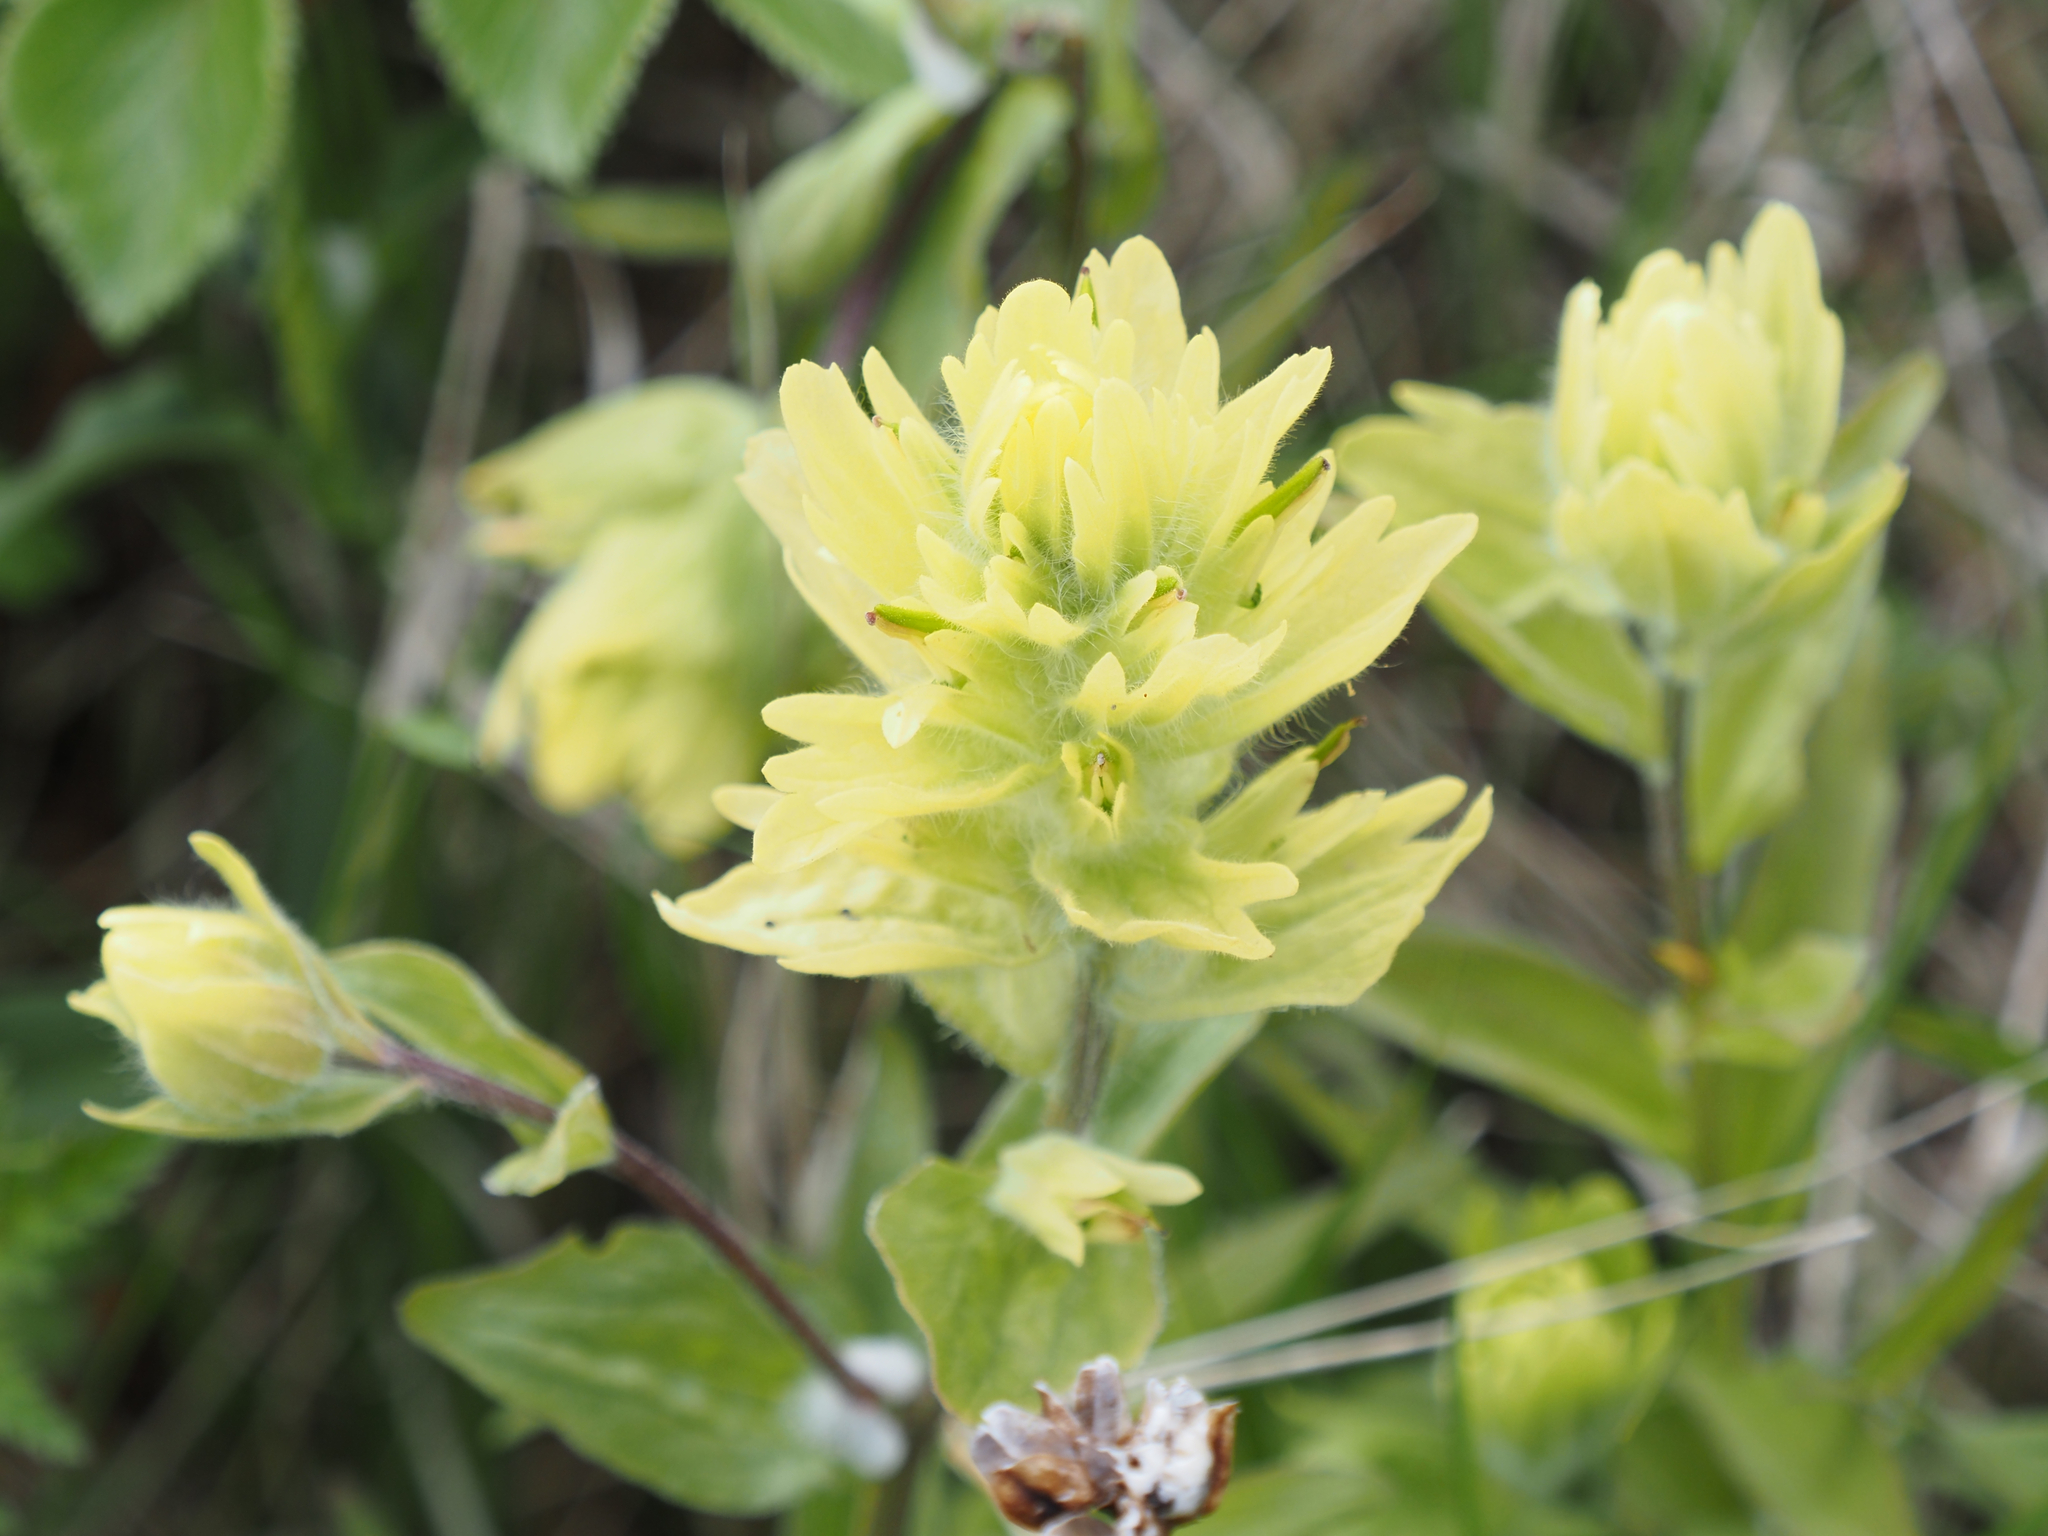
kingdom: Plantae
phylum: Tracheophyta
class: Magnoliopsida
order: Lamiales
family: Orobanchaceae
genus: Castilleja
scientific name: Castilleja unalaschcensis
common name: Unalaska paintbrush
